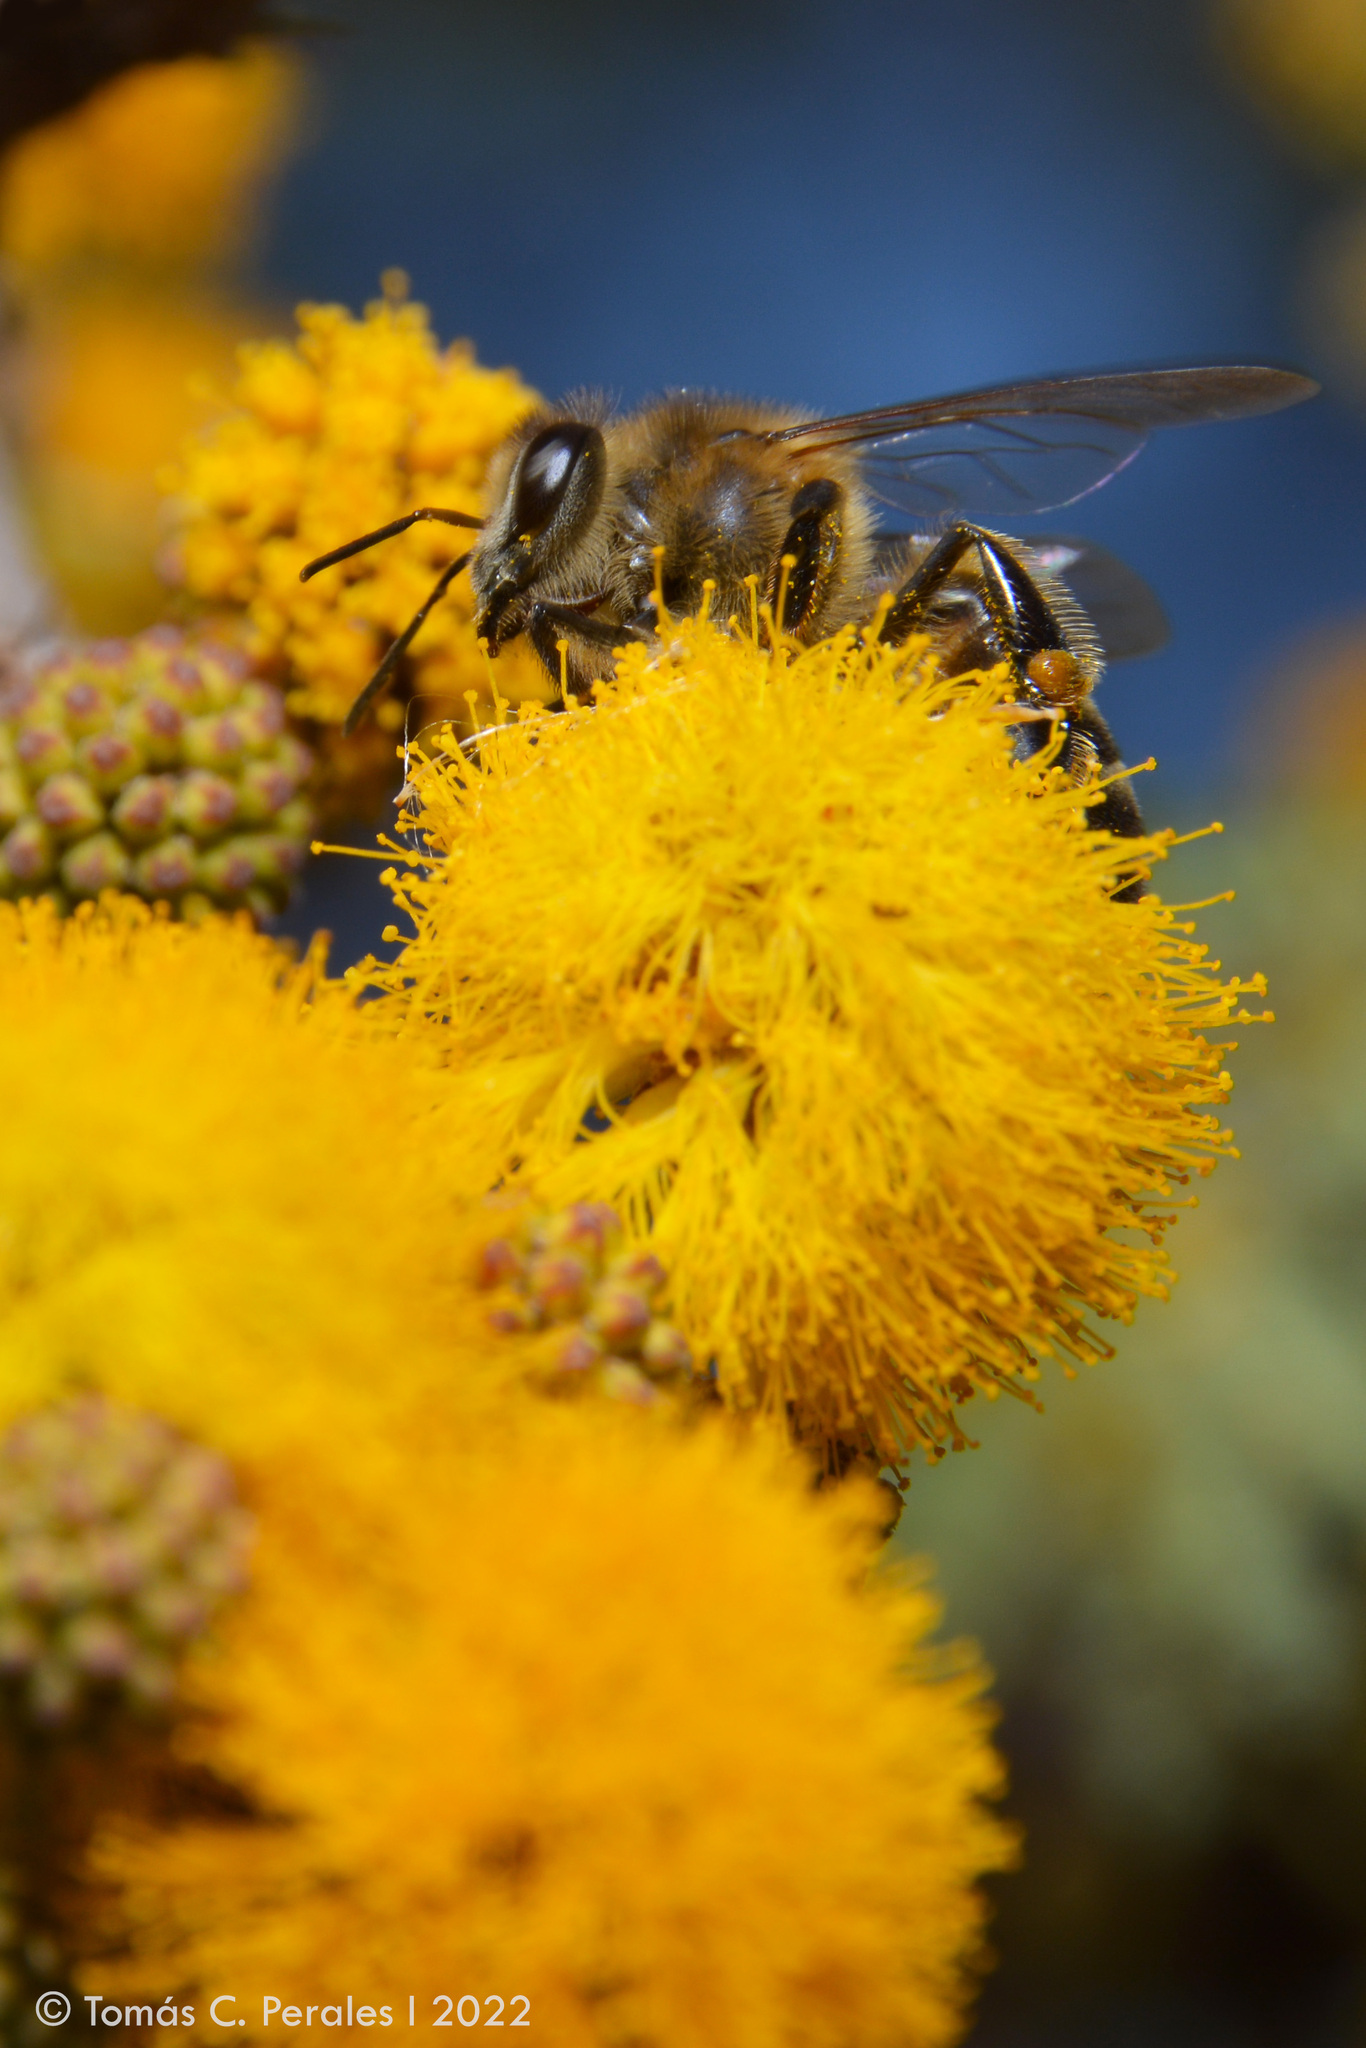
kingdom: Animalia
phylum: Arthropoda
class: Insecta
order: Hymenoptera
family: Apidae
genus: Apis
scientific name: Apis mellifera
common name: Honey bee
